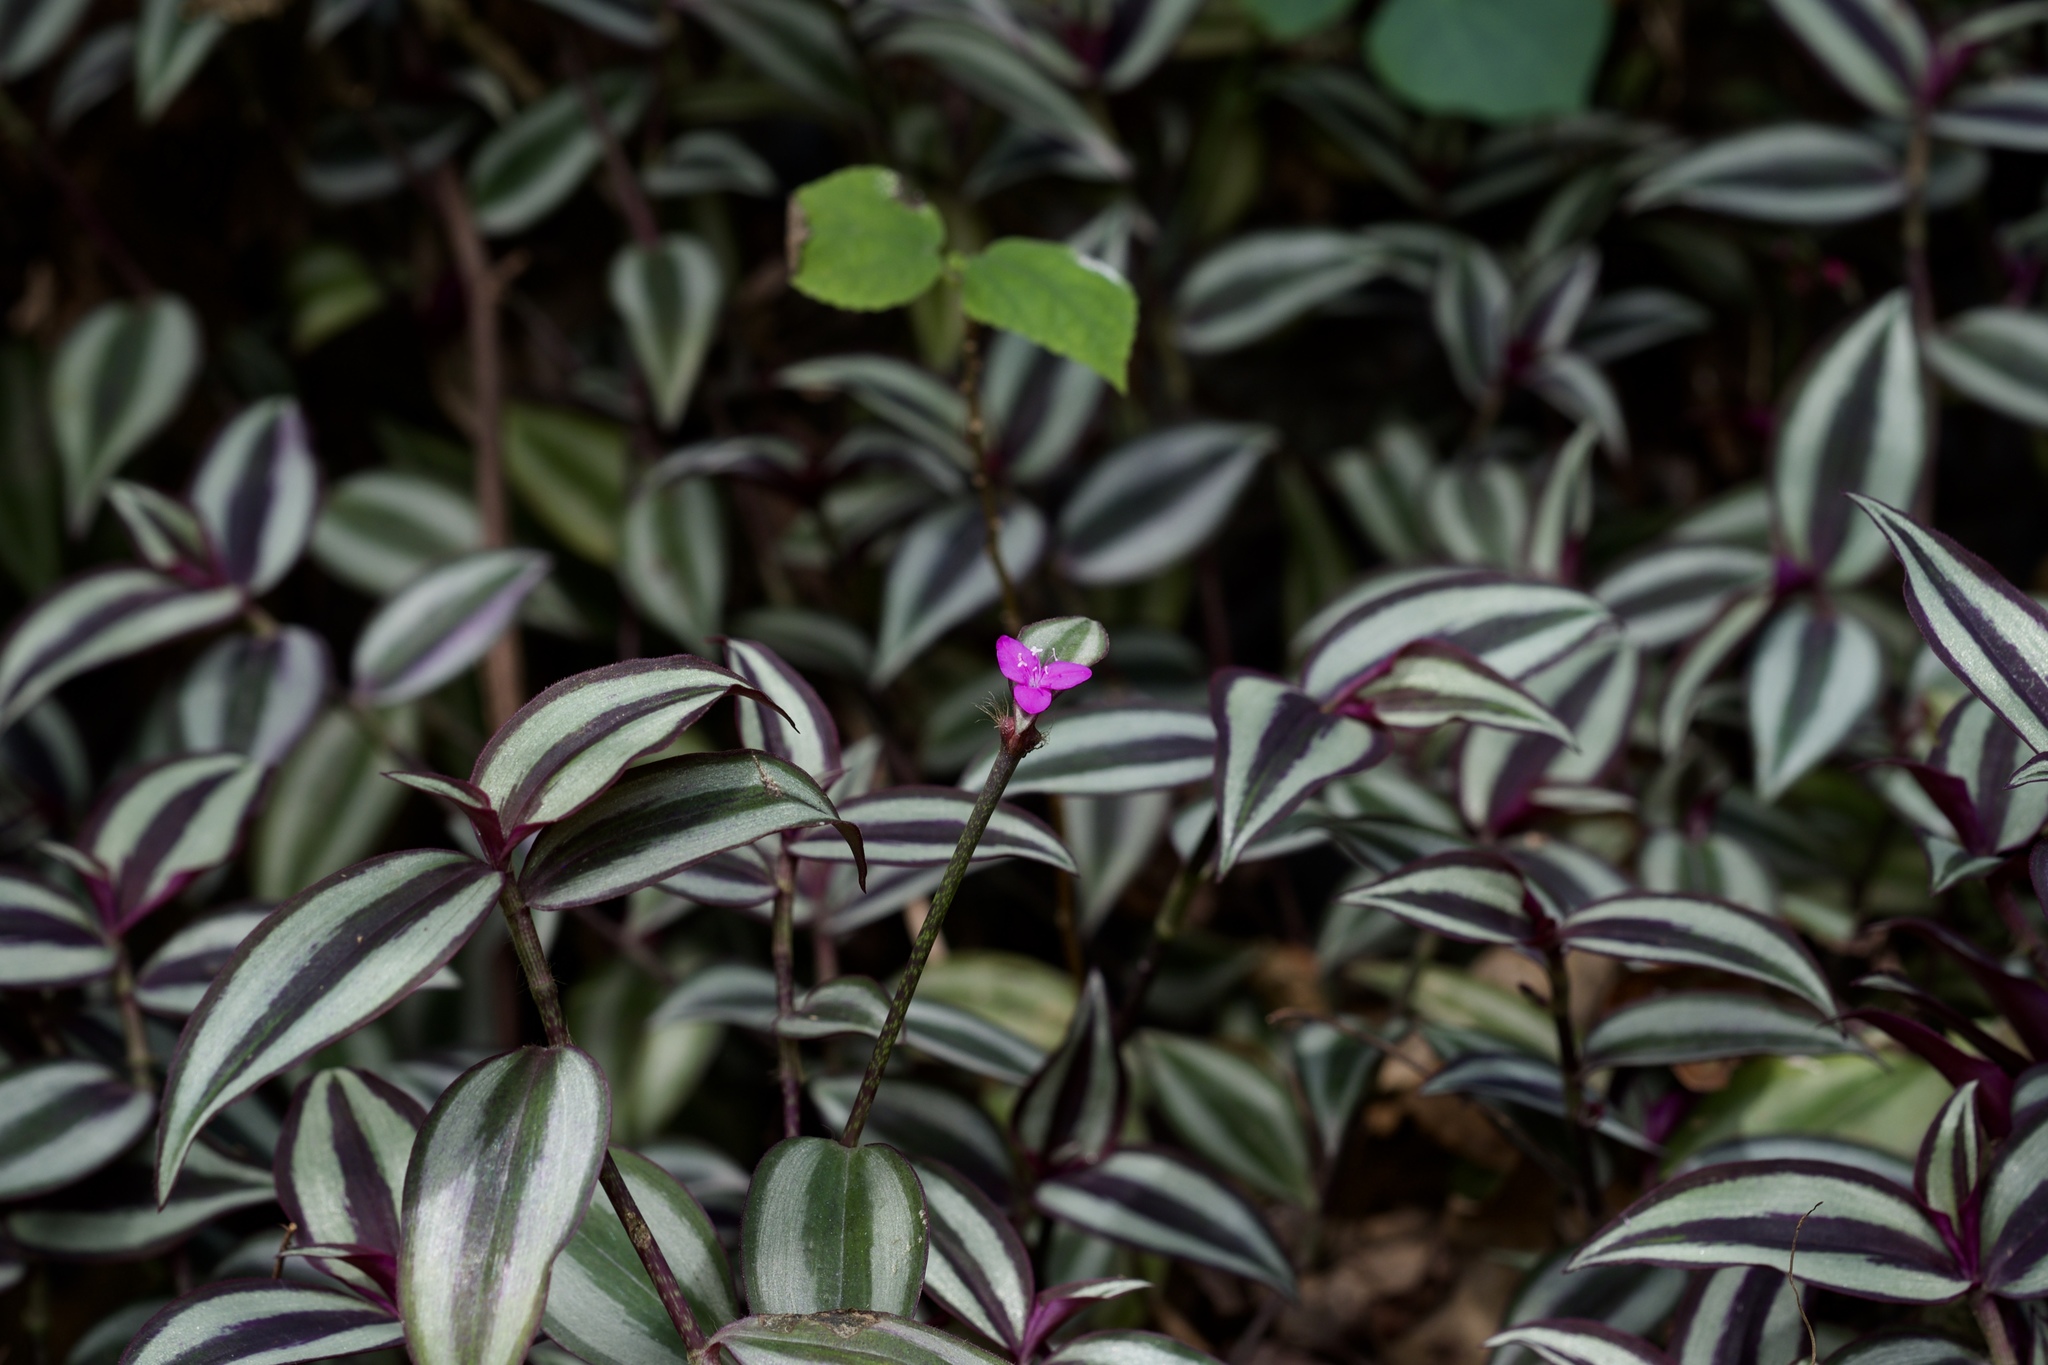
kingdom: Plantae
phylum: Tracheophyta
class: Liliopsida
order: Commelinales
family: Commelinaceae
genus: Tradescantia
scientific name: Tradescantia zebrina
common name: Inchplant
